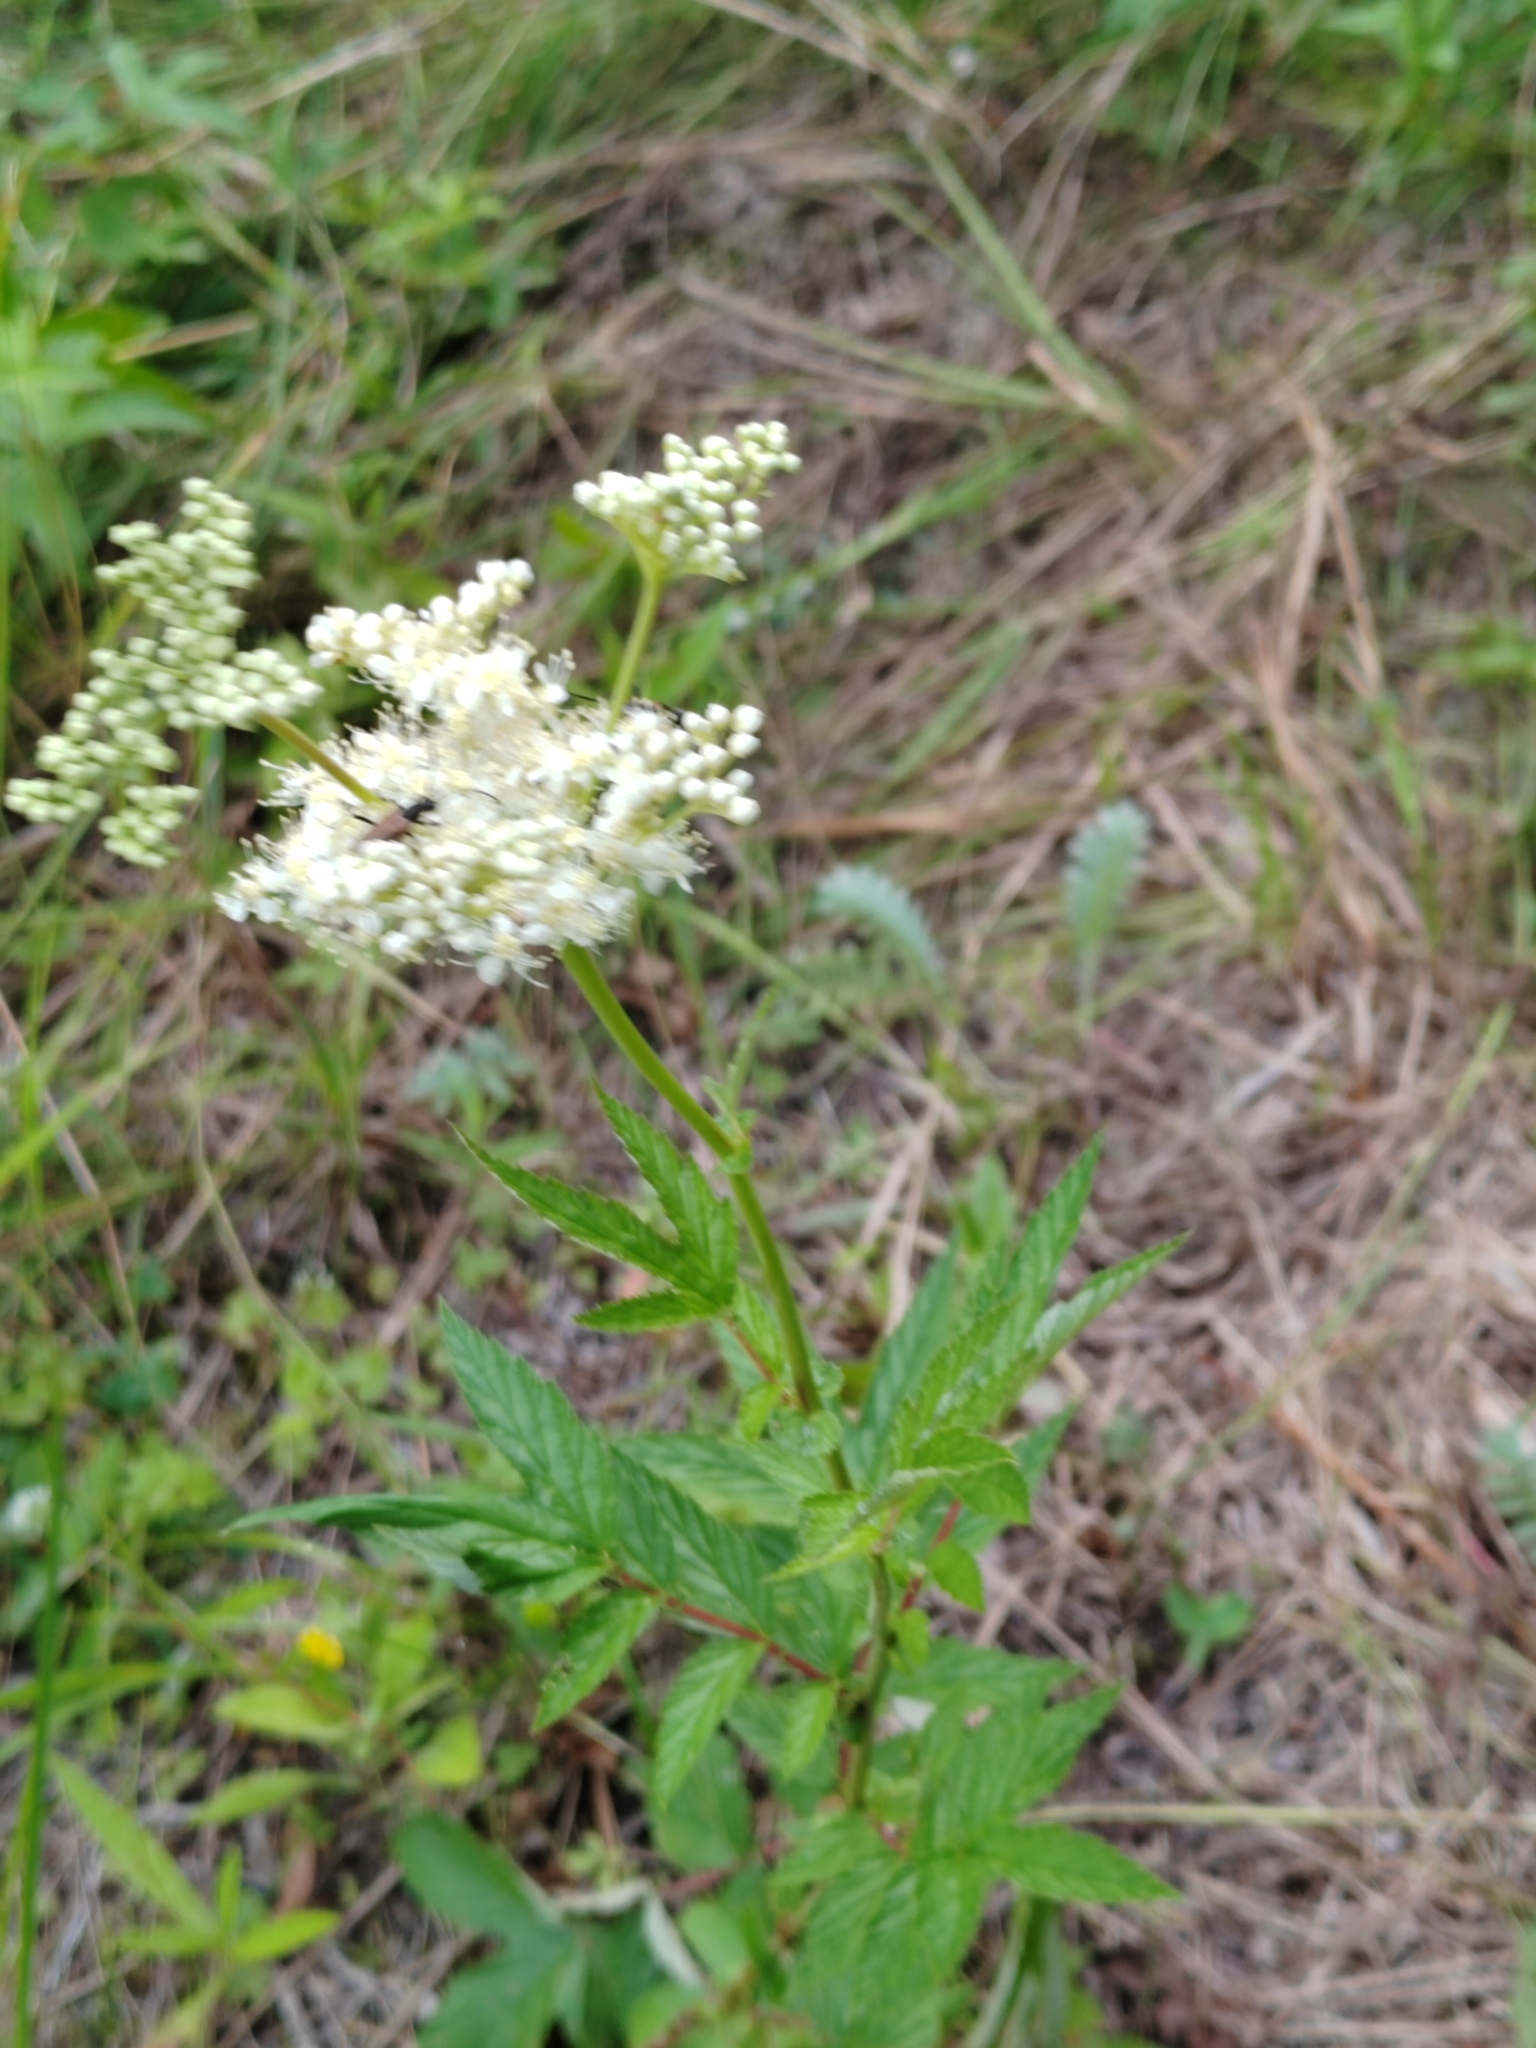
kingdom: Plantae
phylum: Tracheophyta
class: Magnoliopsida
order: Rosales
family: Rosaceae
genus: Filipendula
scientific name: Filipendula ulmaria
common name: Meadowsweet
